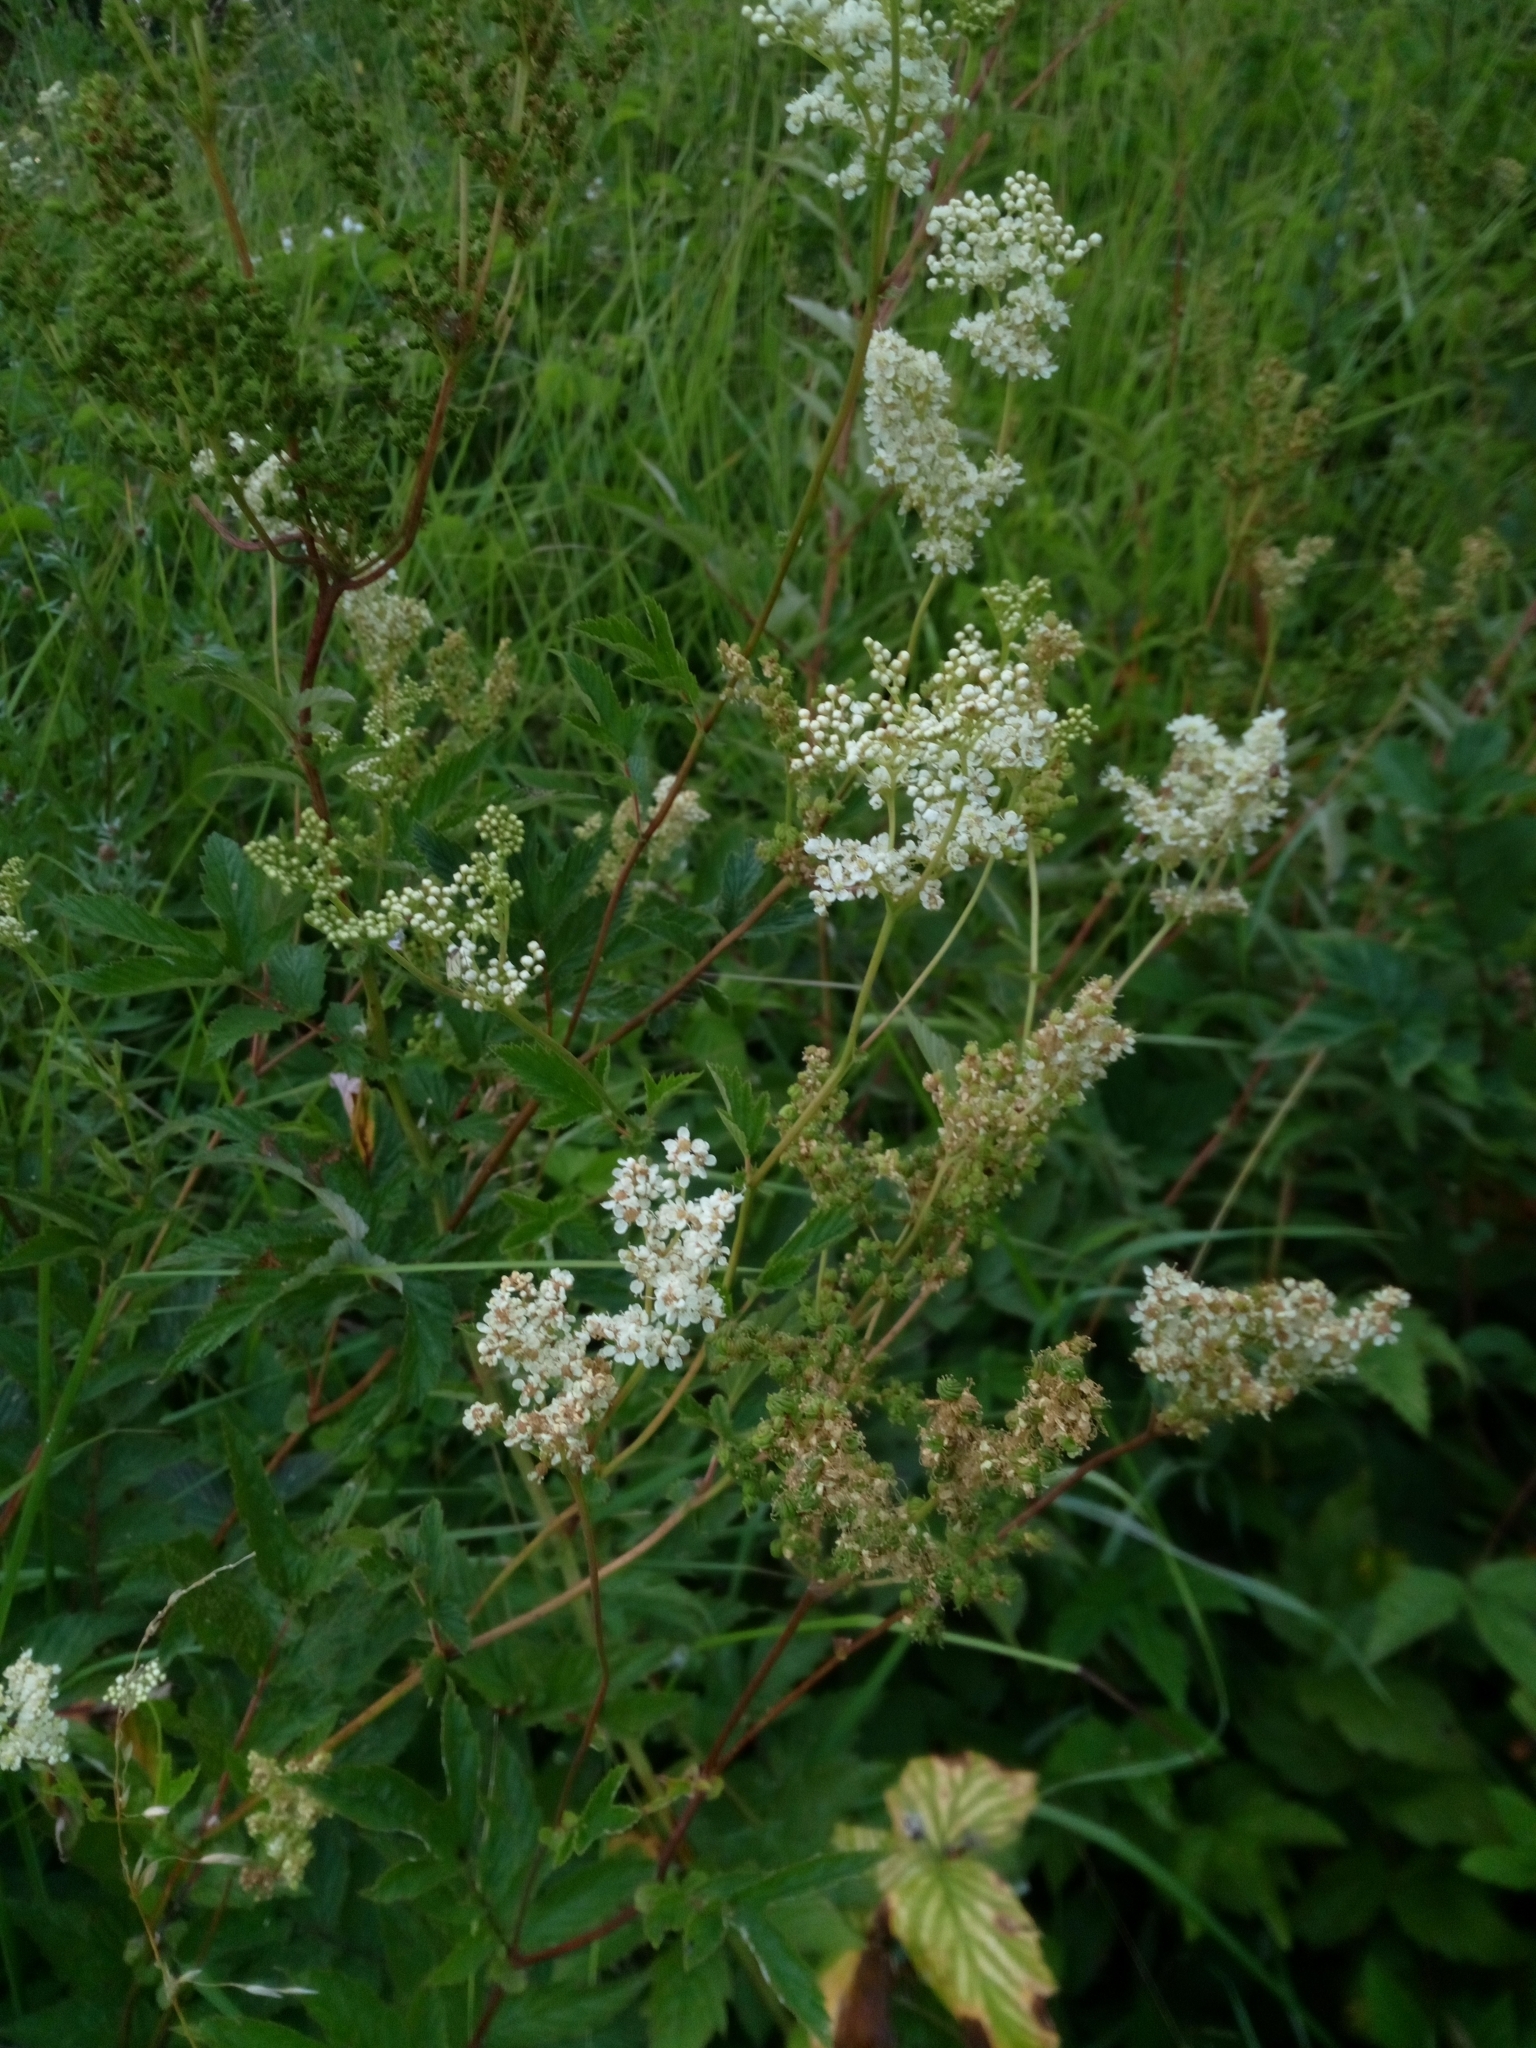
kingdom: Plantae
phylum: Tracheophyta
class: Magnoliopsida
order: Rosales
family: Rosaceae
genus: Filipendula
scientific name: Filipendula ulmaria
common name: Meadowsweet
